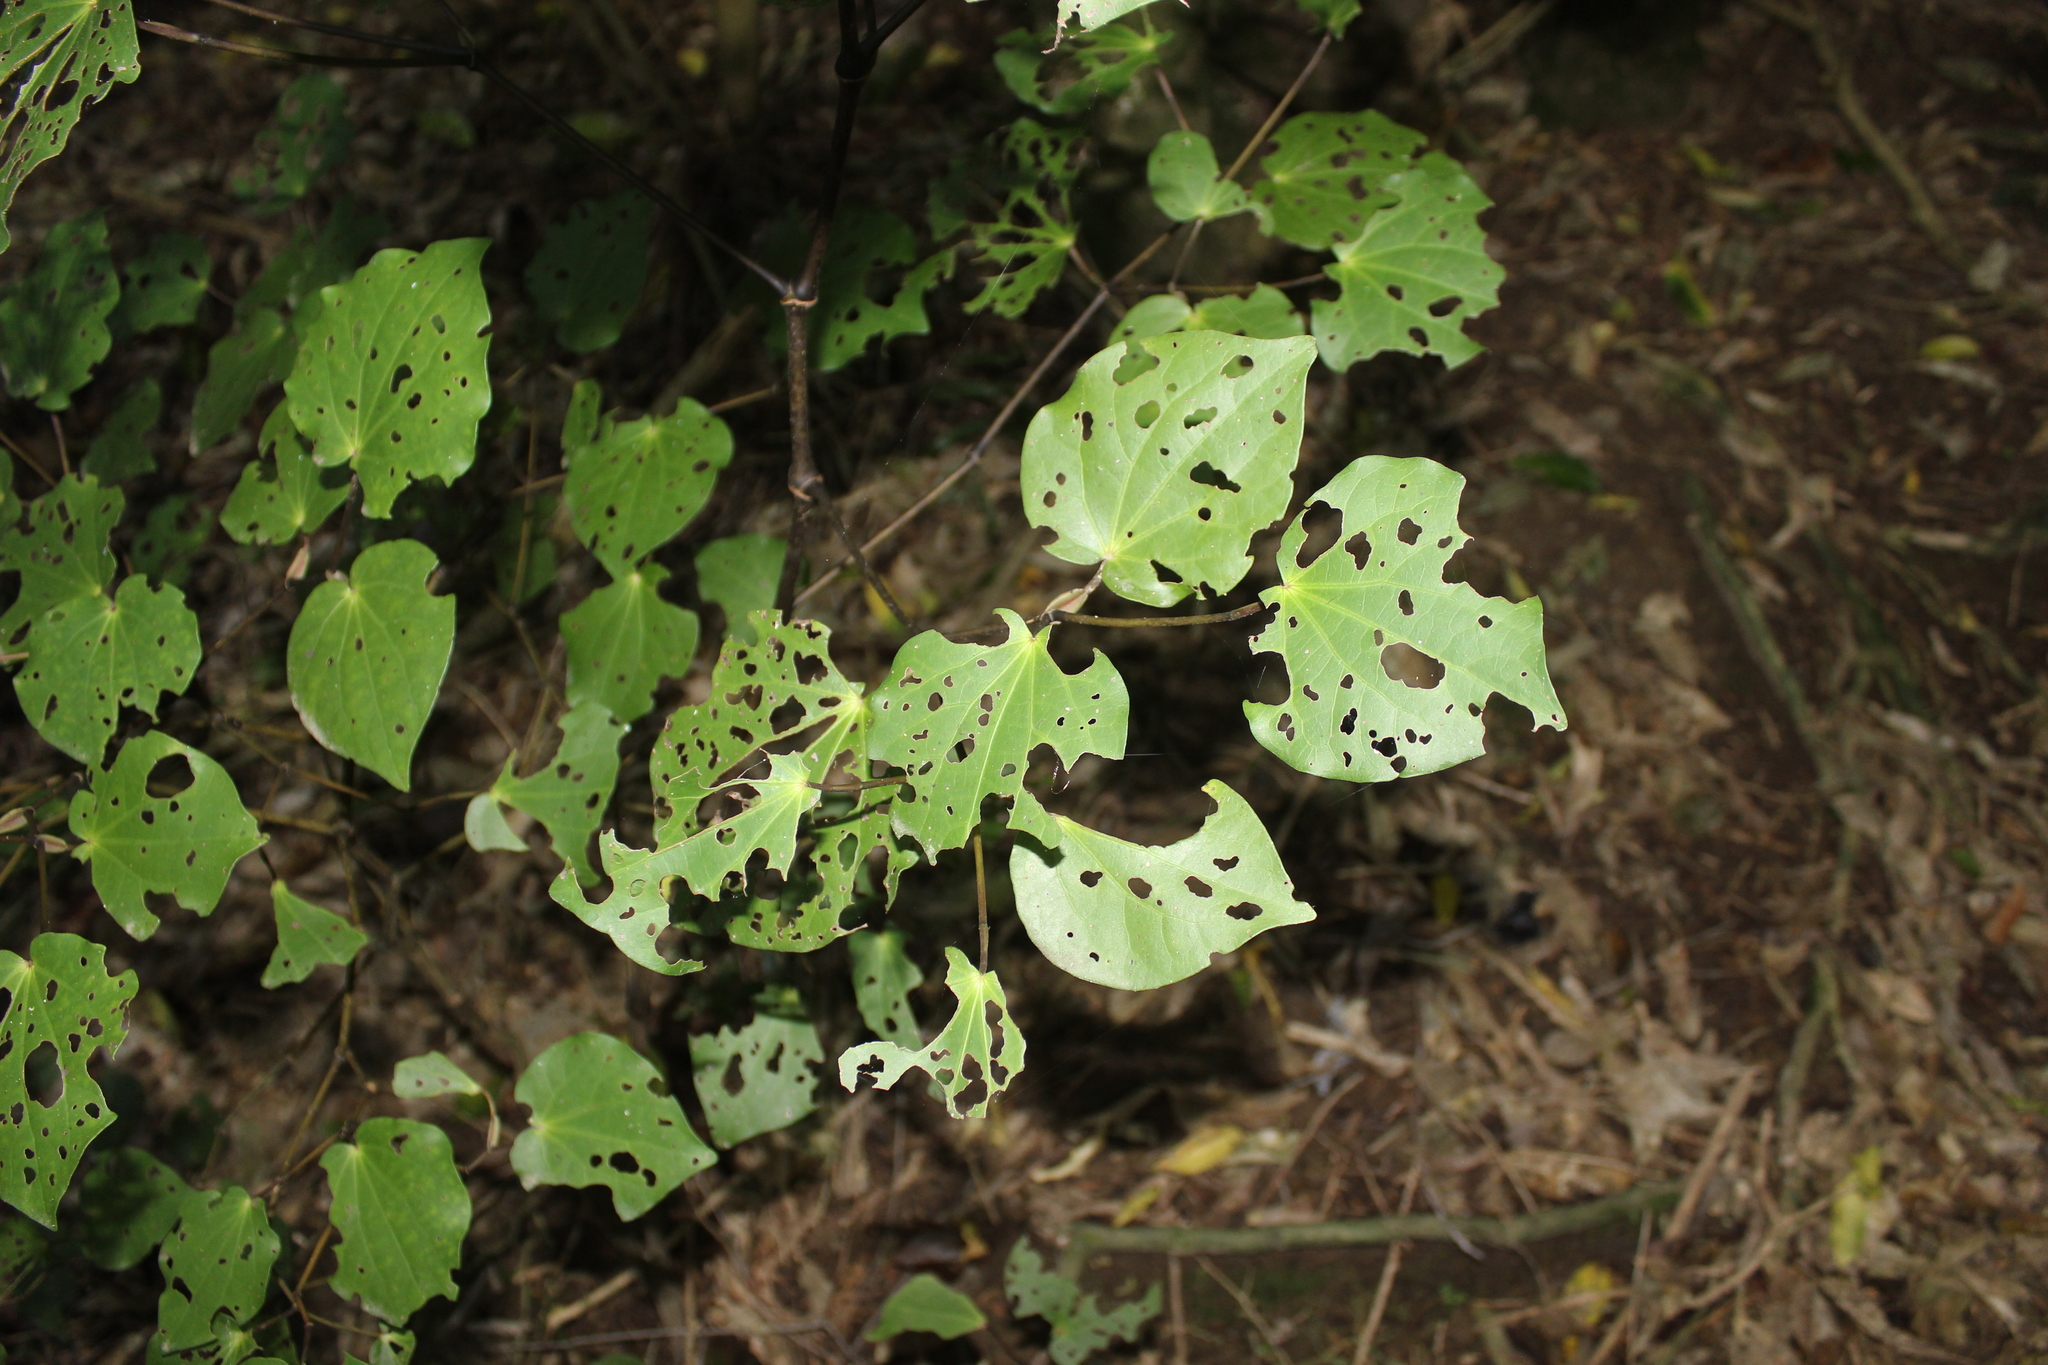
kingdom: Plantae
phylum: Tracheophyta
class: Magnoliopsida
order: Piperales
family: Piperaceae
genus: Macropiper
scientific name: Macropiper excelsum
